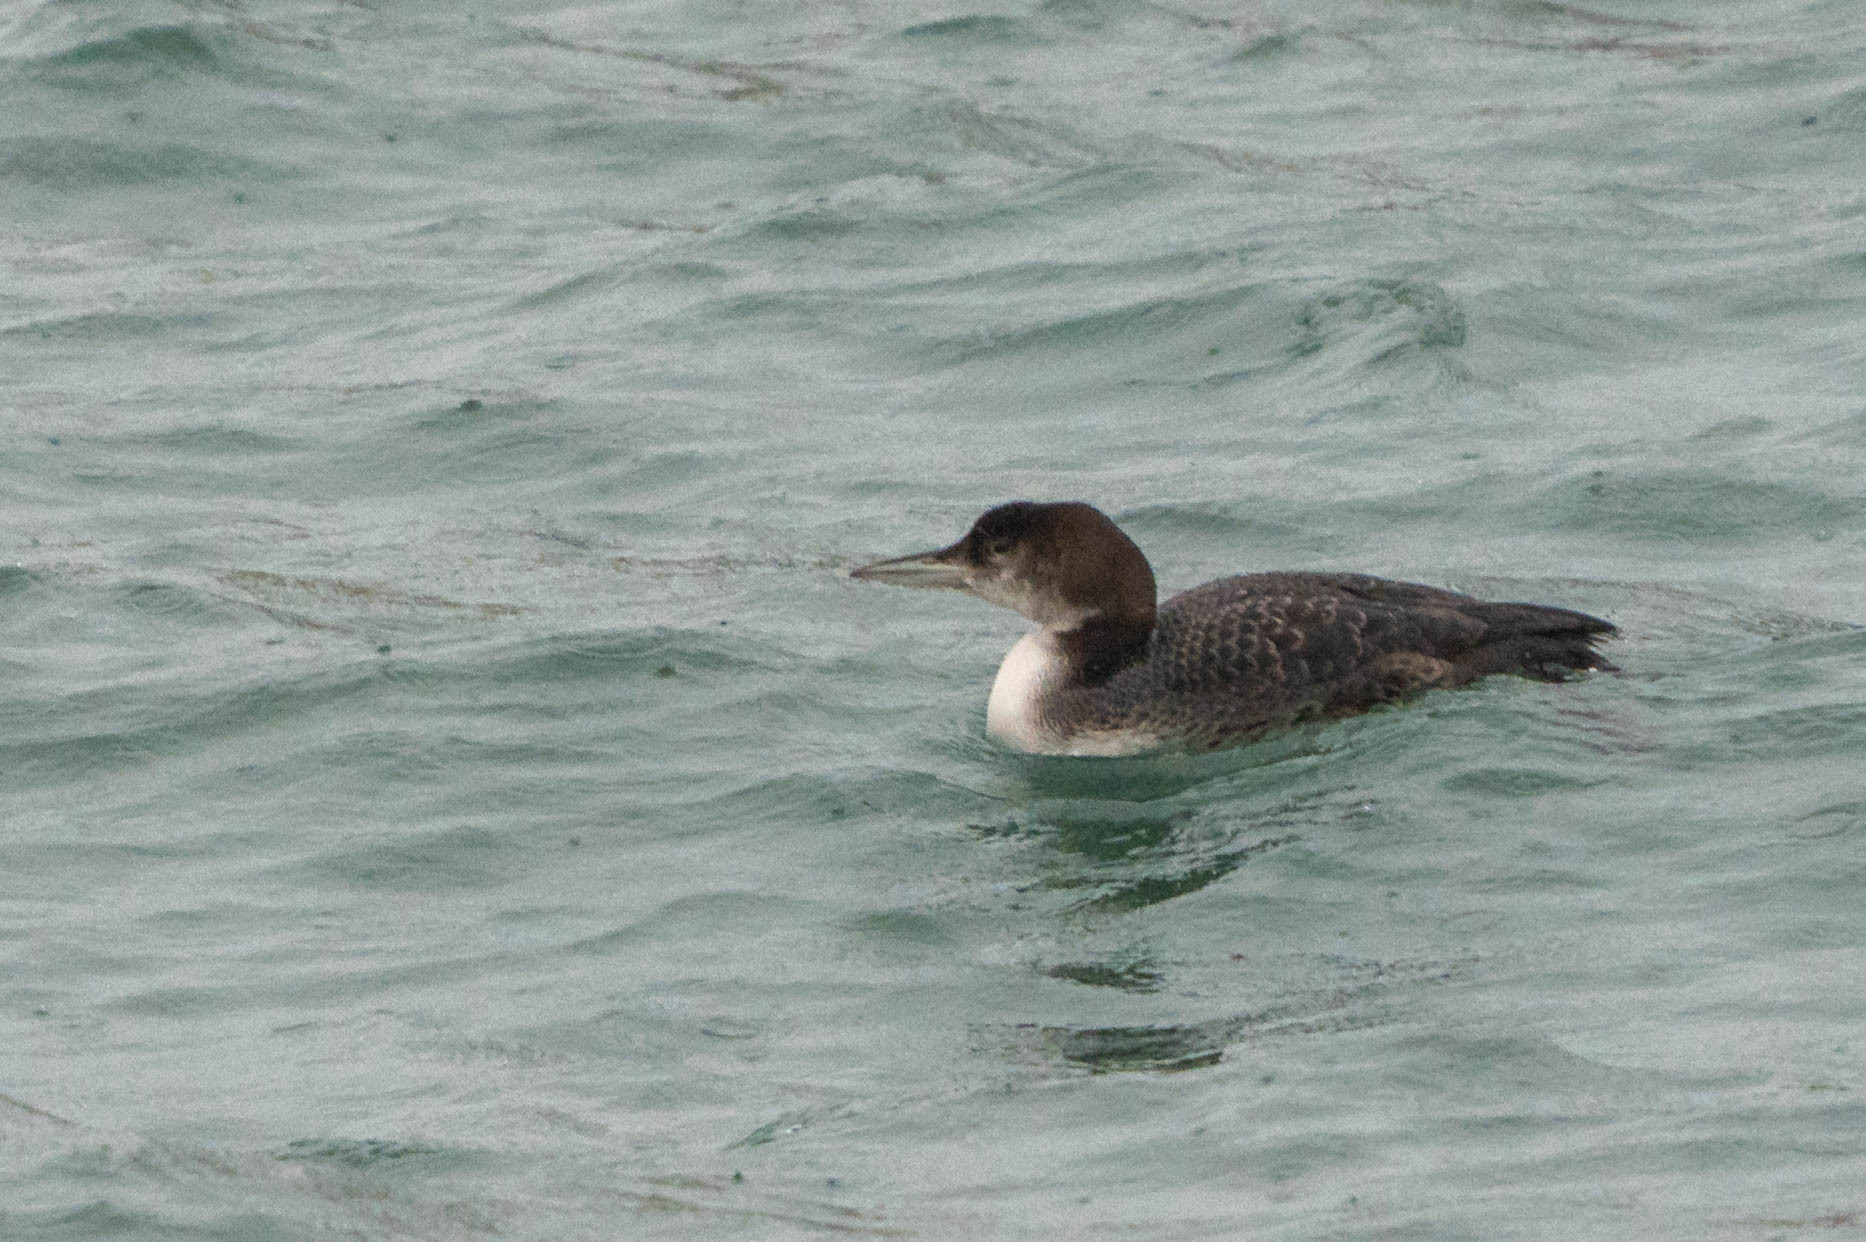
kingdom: Animalia
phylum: Chordata
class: Aves
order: Gaviiformes
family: Gaviidae
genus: Gavia
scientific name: Gavia immer
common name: Common loon
